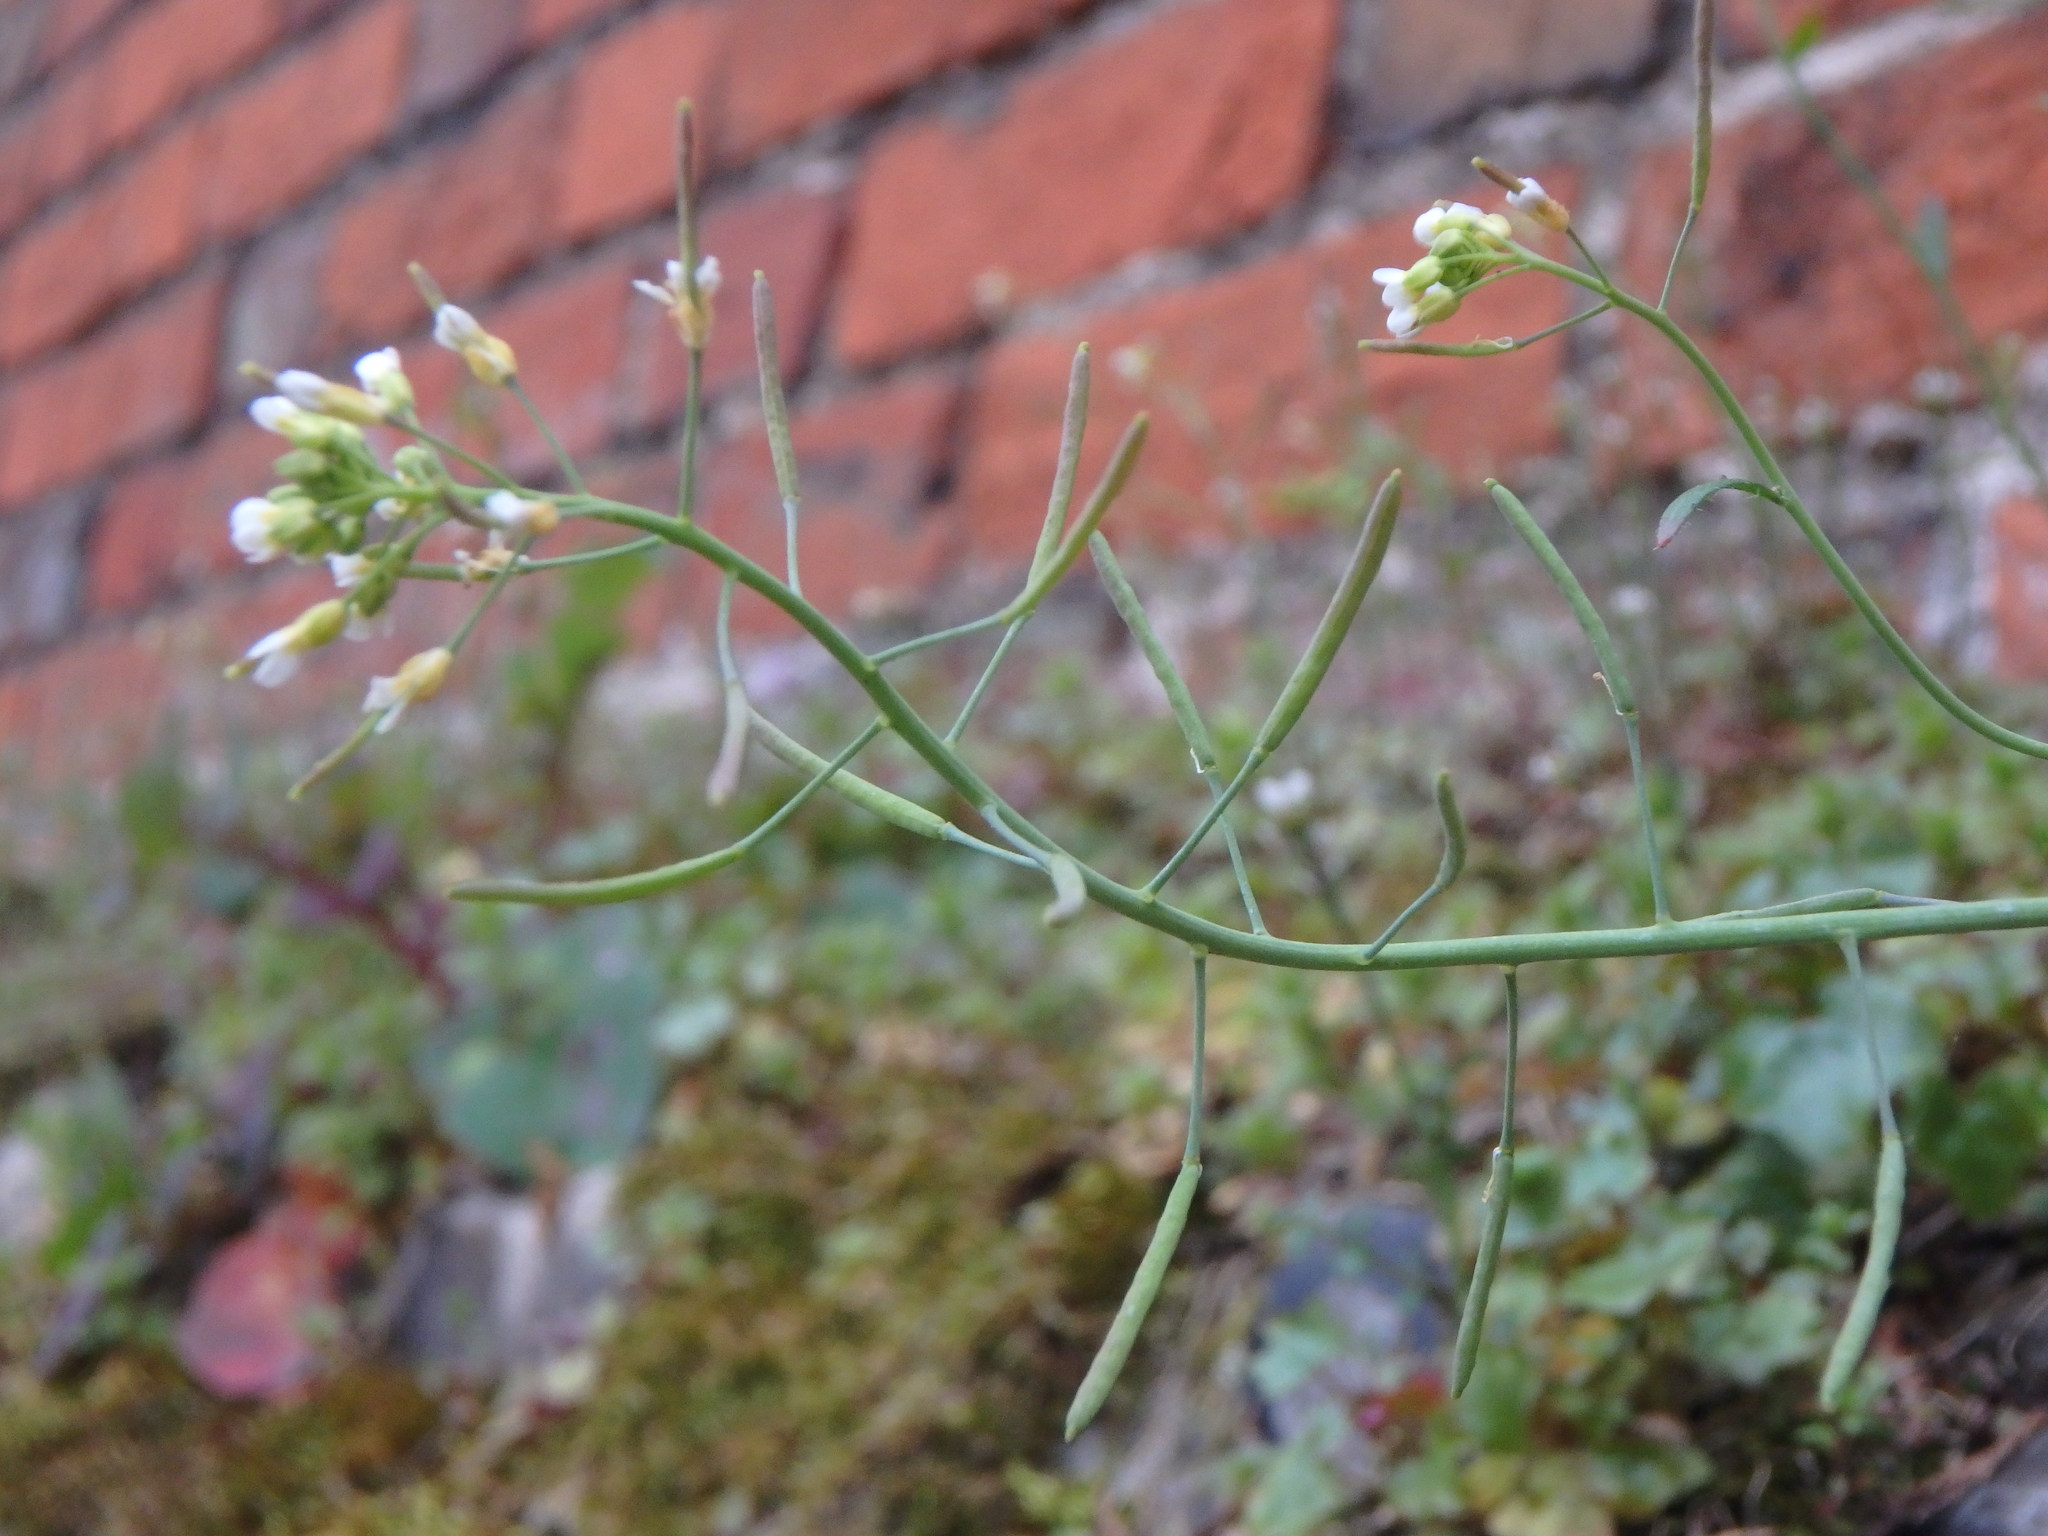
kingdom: Plantae
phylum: Tracheophyta
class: Magnoliopsida
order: Brassicales
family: Brassicaceae
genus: Arabidopsis
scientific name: Arabidopsis thaliana
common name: Thale cress
